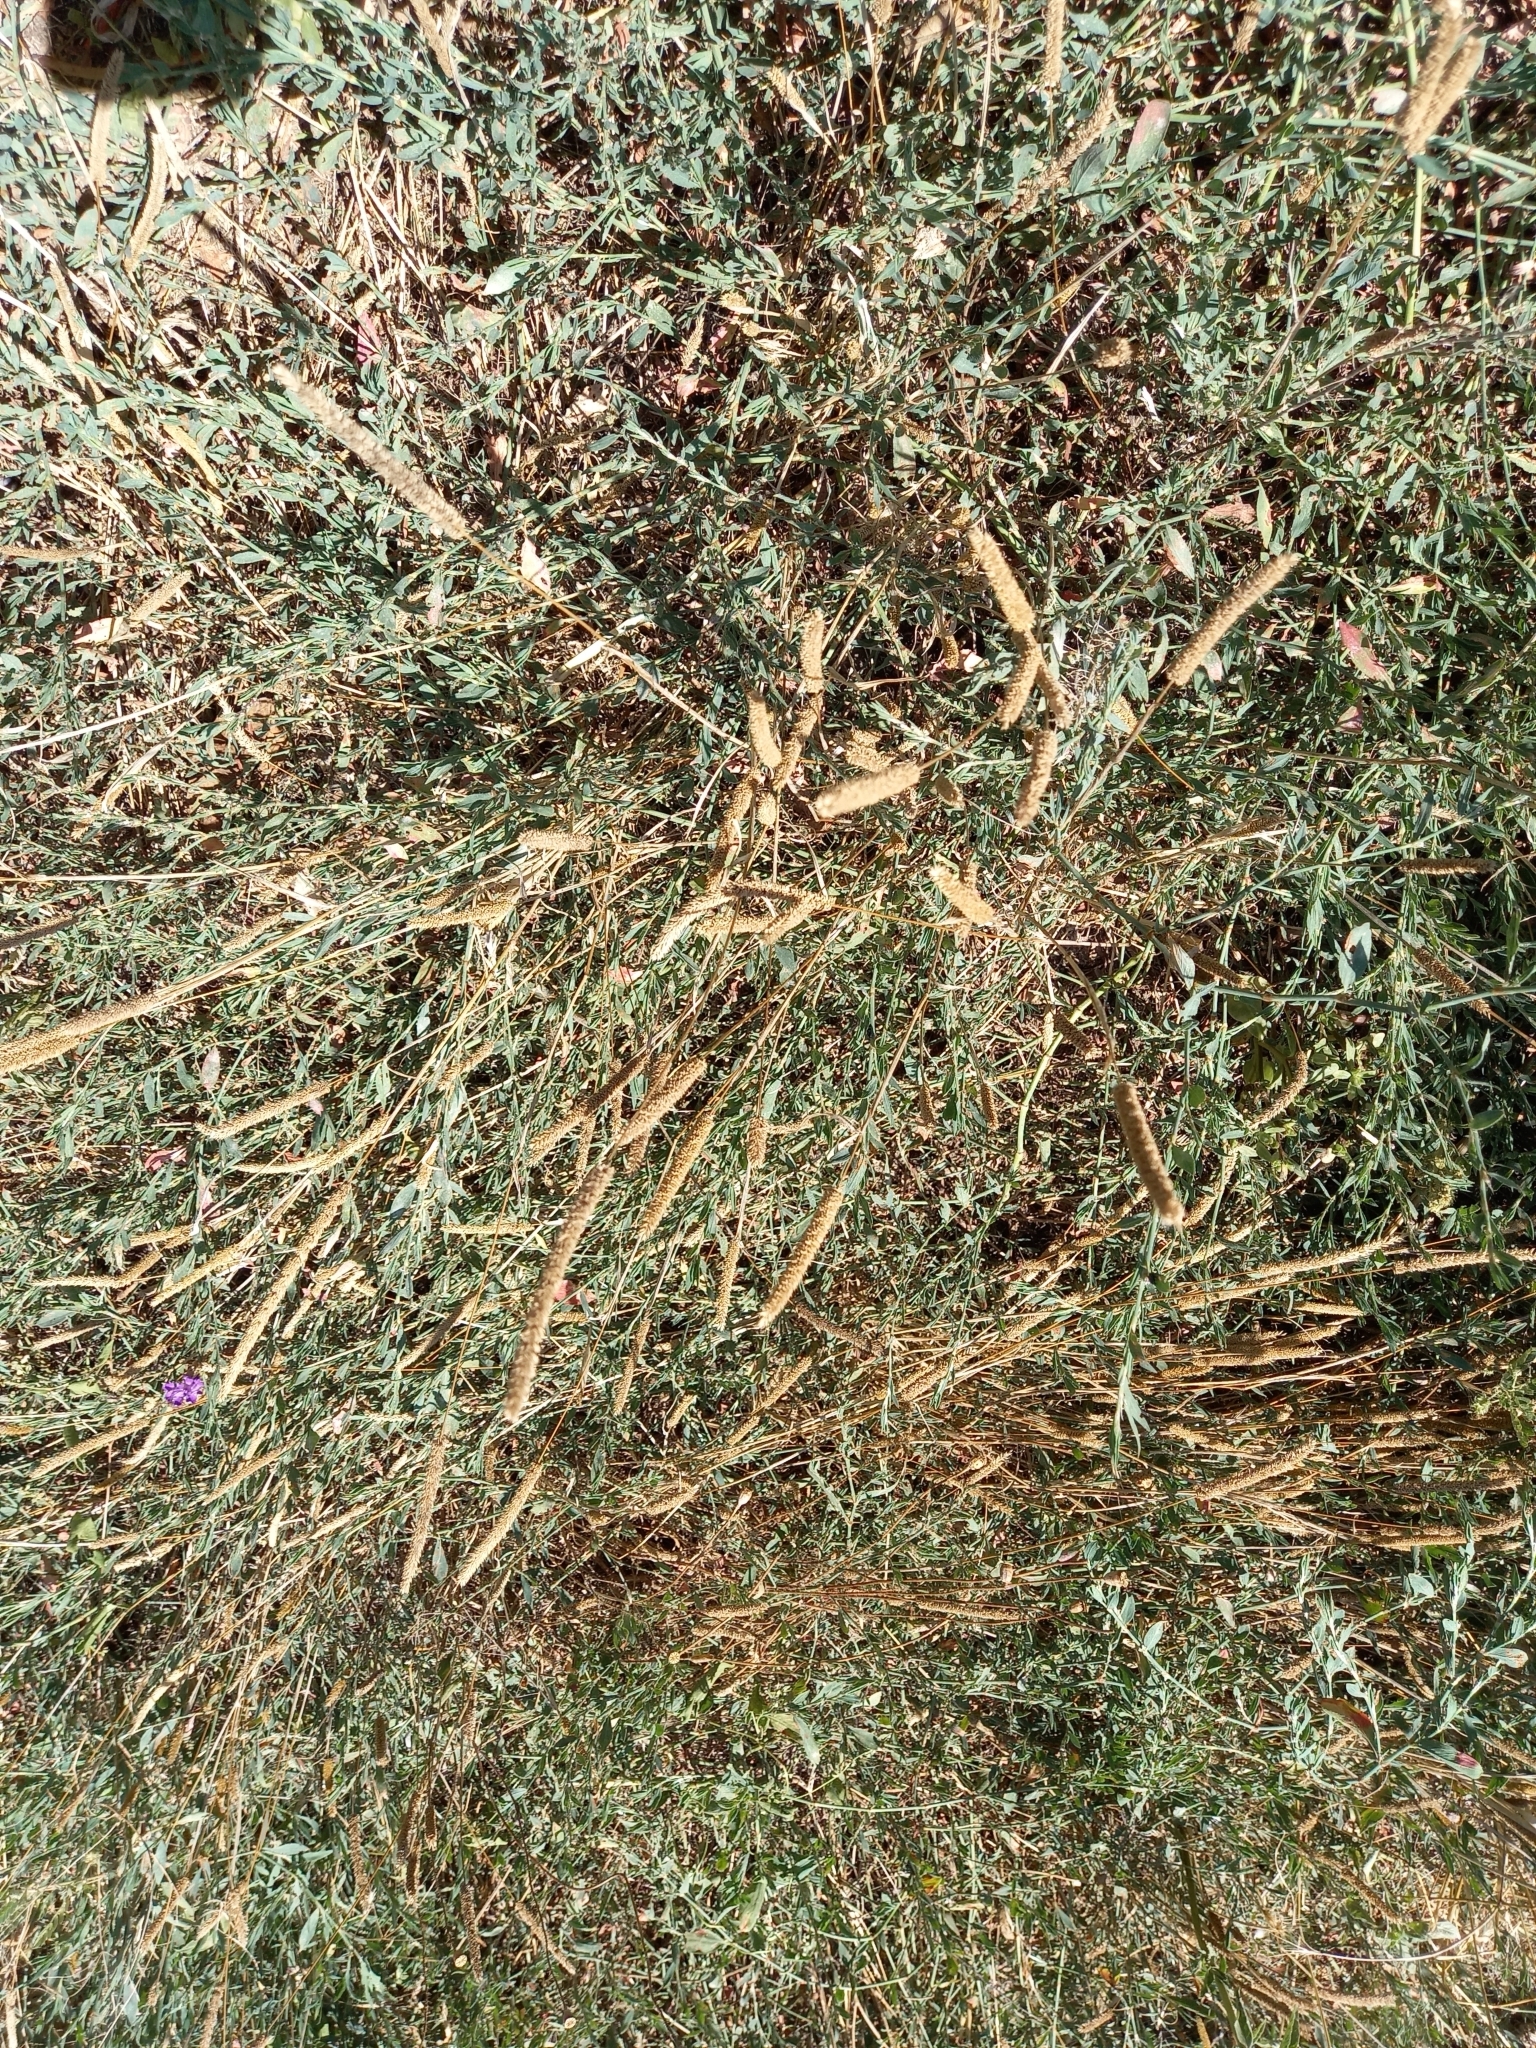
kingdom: Plantae
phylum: Tracheophyta
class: Liliopsida
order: Poales
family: Poaceae
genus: Phleum
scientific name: Phleum phleoides
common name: Purple-stem cat's-tail
